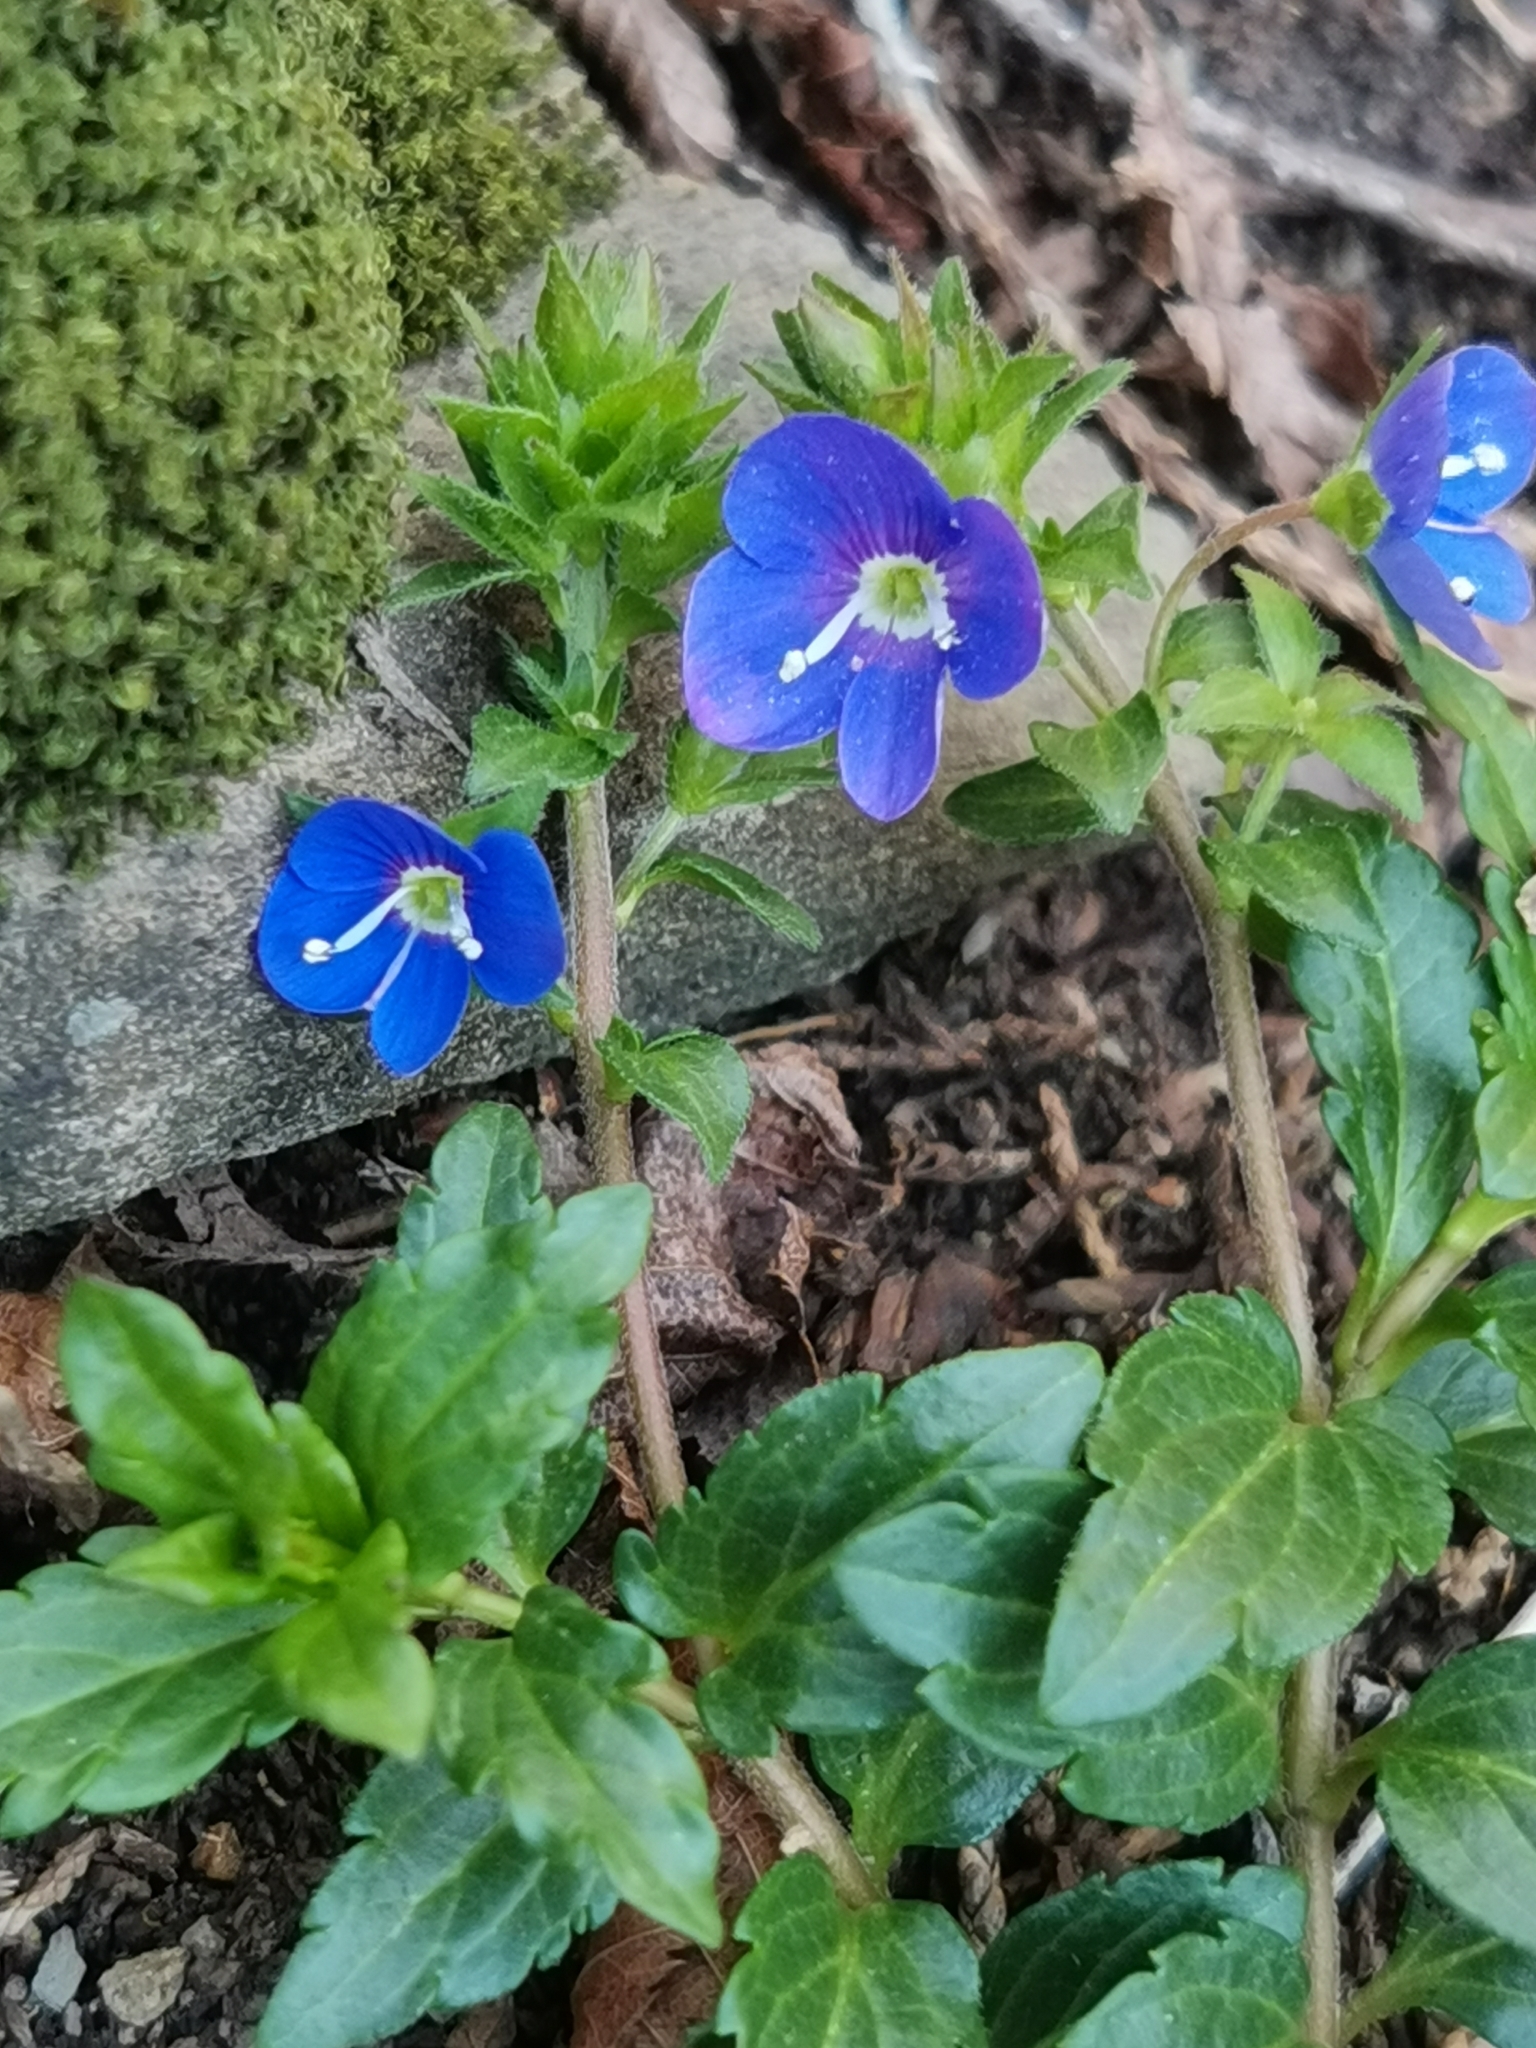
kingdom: Plantae
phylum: Tracheophyta
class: Magnoliopsida
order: Lamiales
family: Plantaginaceae
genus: Veronica
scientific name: Veronica
